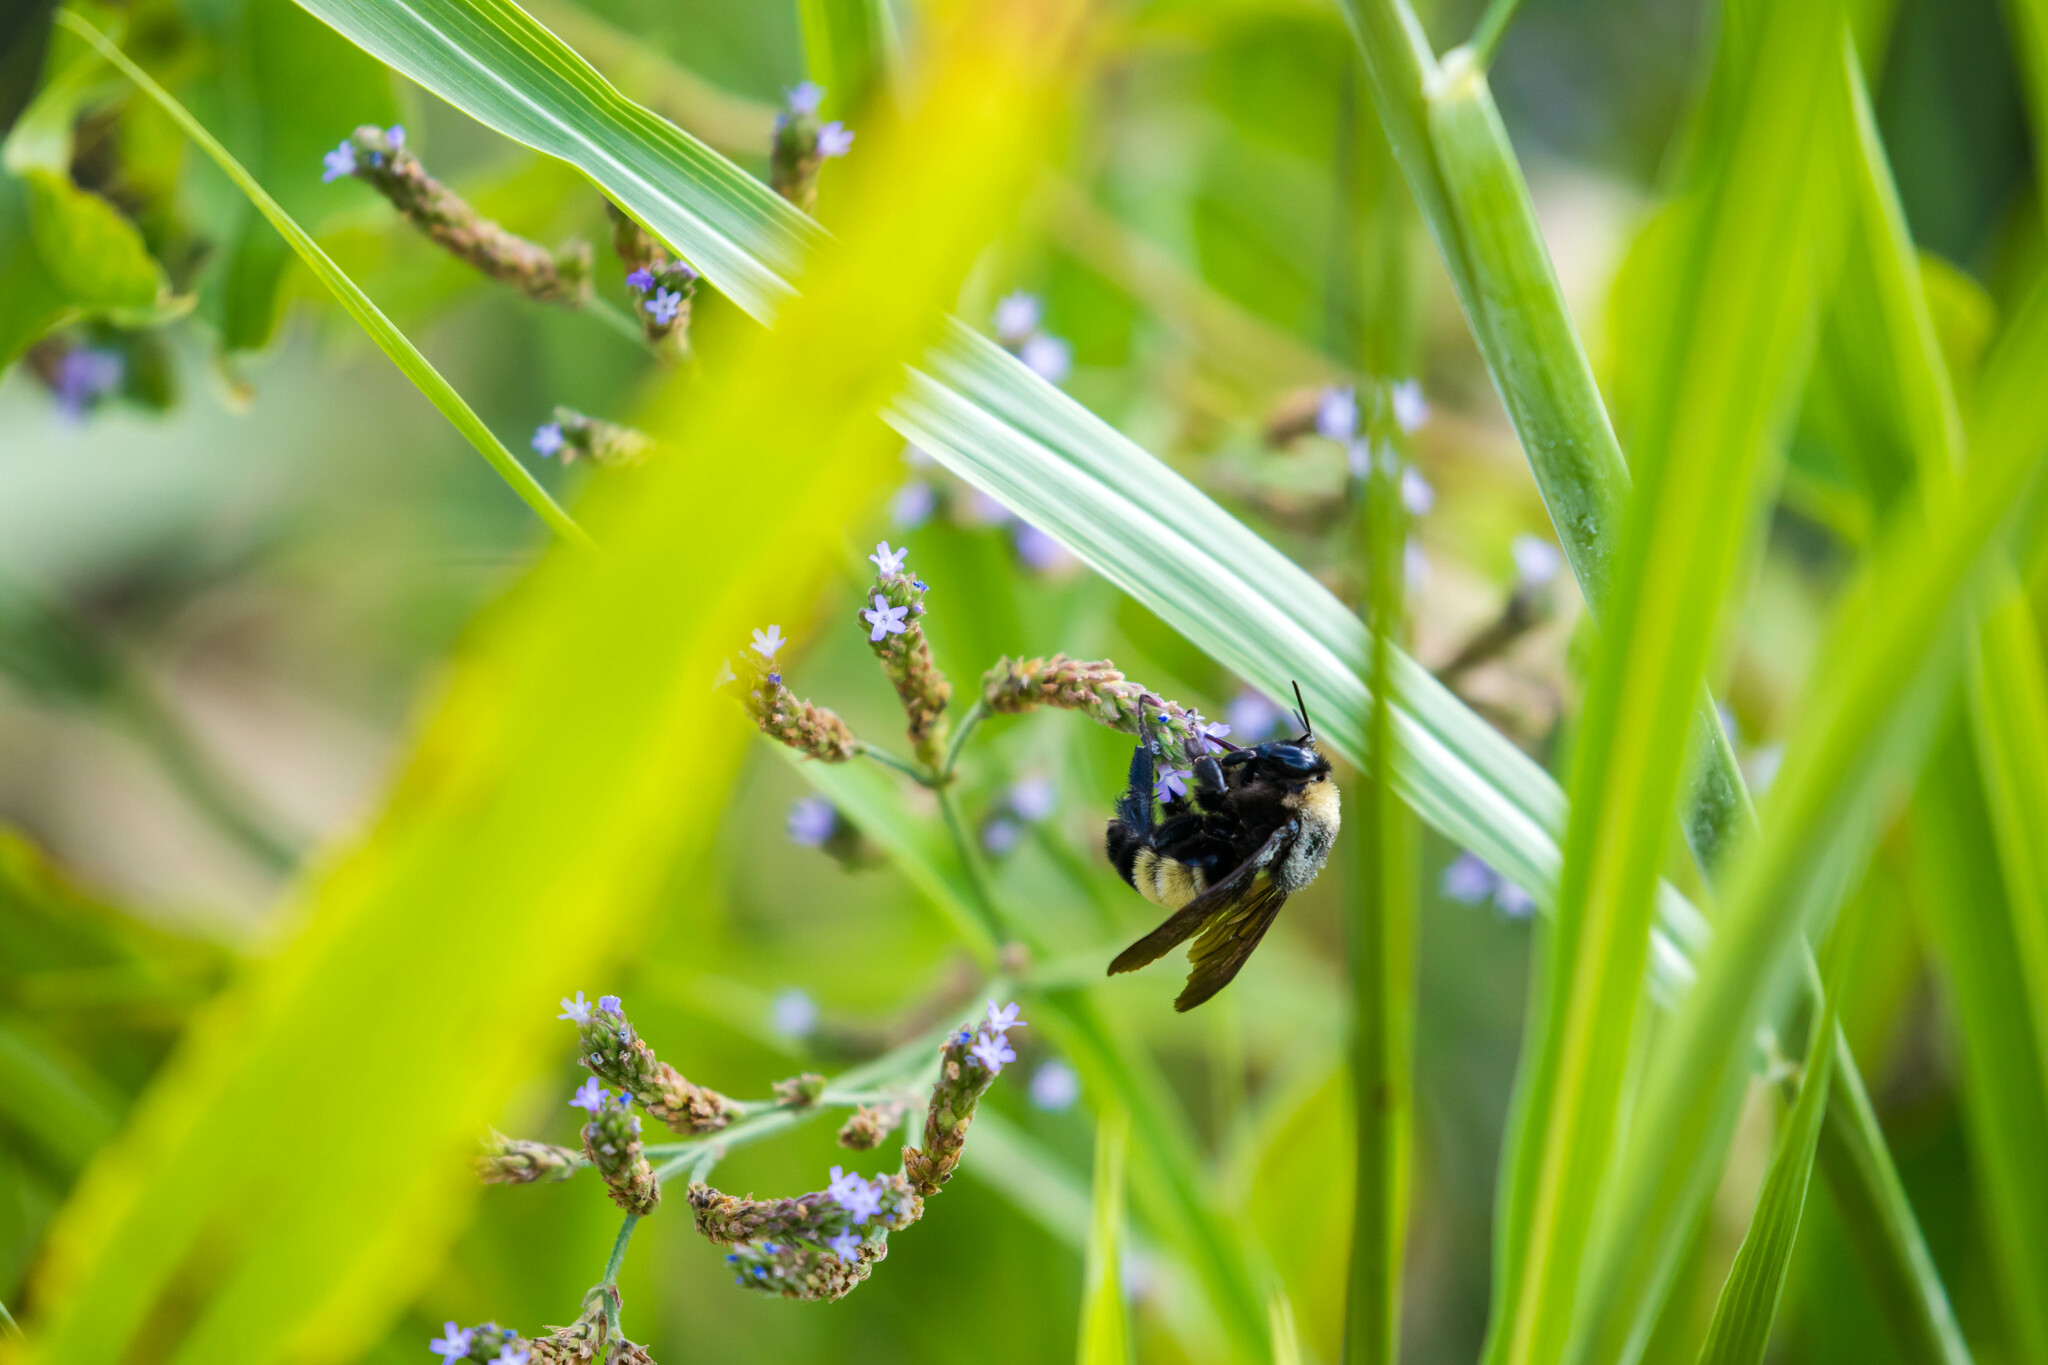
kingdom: Animalia
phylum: Arthropoda
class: Insecta
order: Hymenoptera
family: Apidae
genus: Bombus
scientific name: Bombus pensylvanicus
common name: Bumble bee
